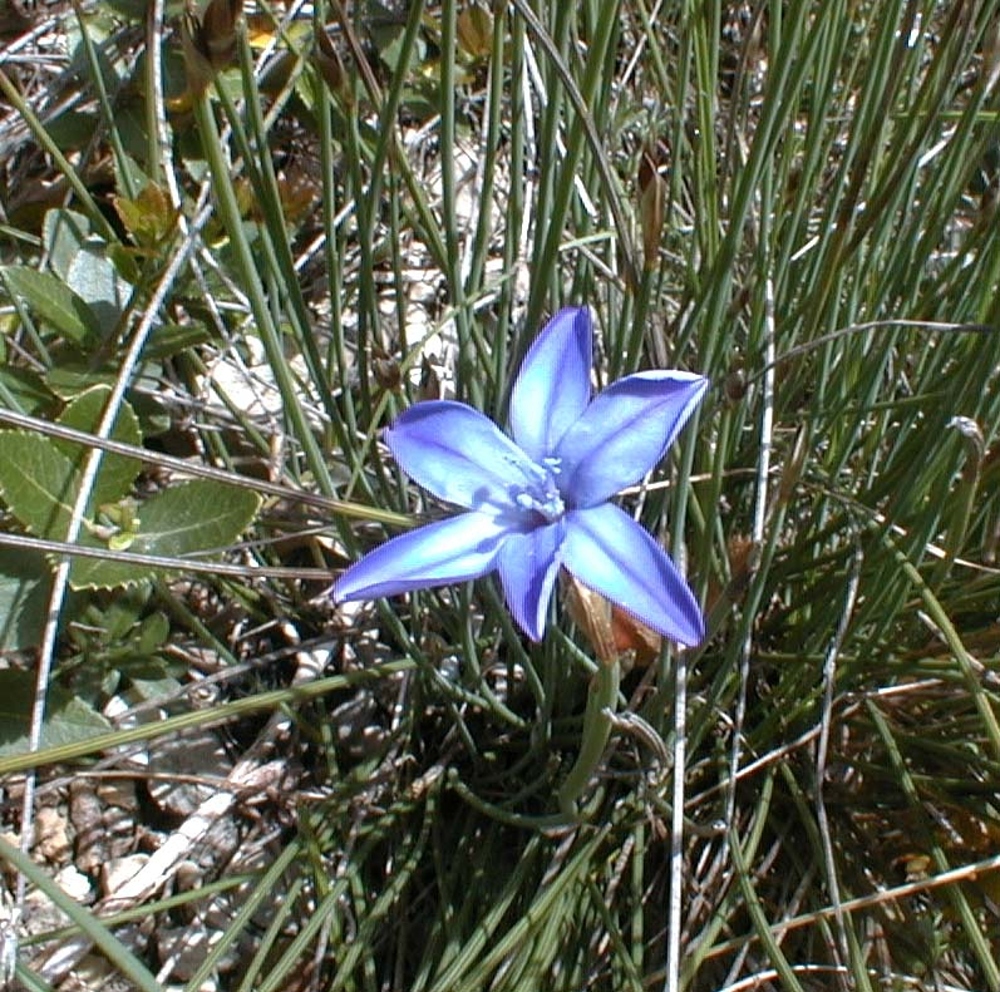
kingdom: Plantae
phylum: Tracheophyta
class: Liliopsida
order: Asparagales
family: Asparagaceae
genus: Aphyllanthes
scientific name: Aphyllanthes monspeliensis
